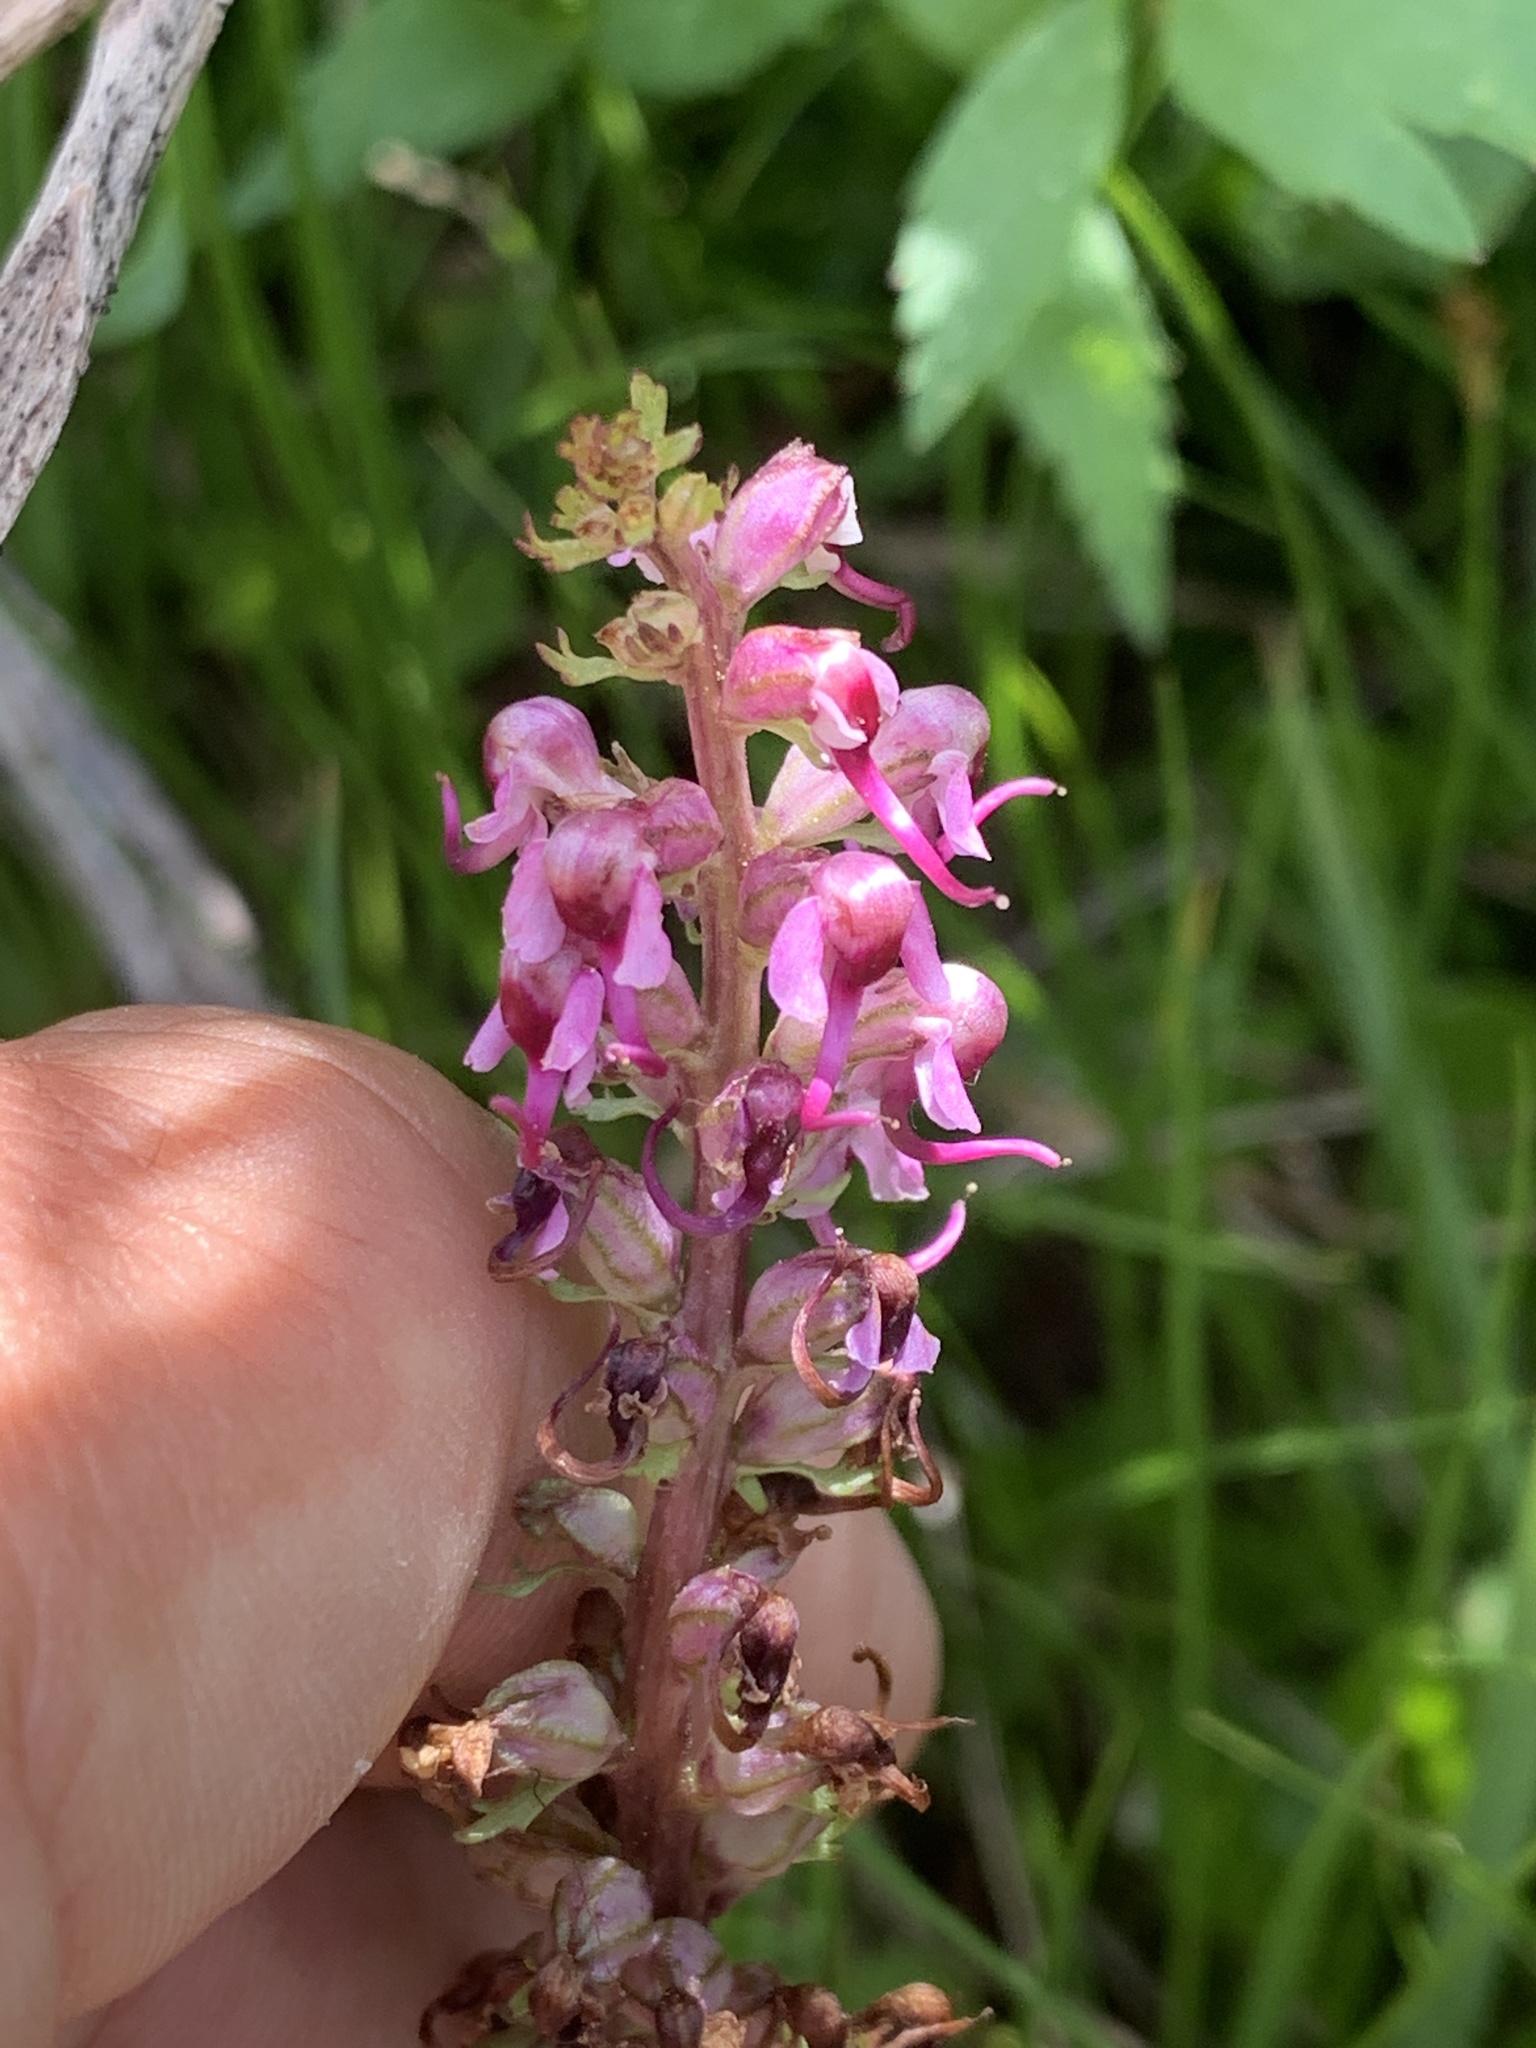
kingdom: Plantae
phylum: Tracheophyta
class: Magnoliopsida
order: Lamiales
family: Orobanchaceae
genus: Pedicularis
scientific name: Pedicularis groenlandica
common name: Elephant's-head
